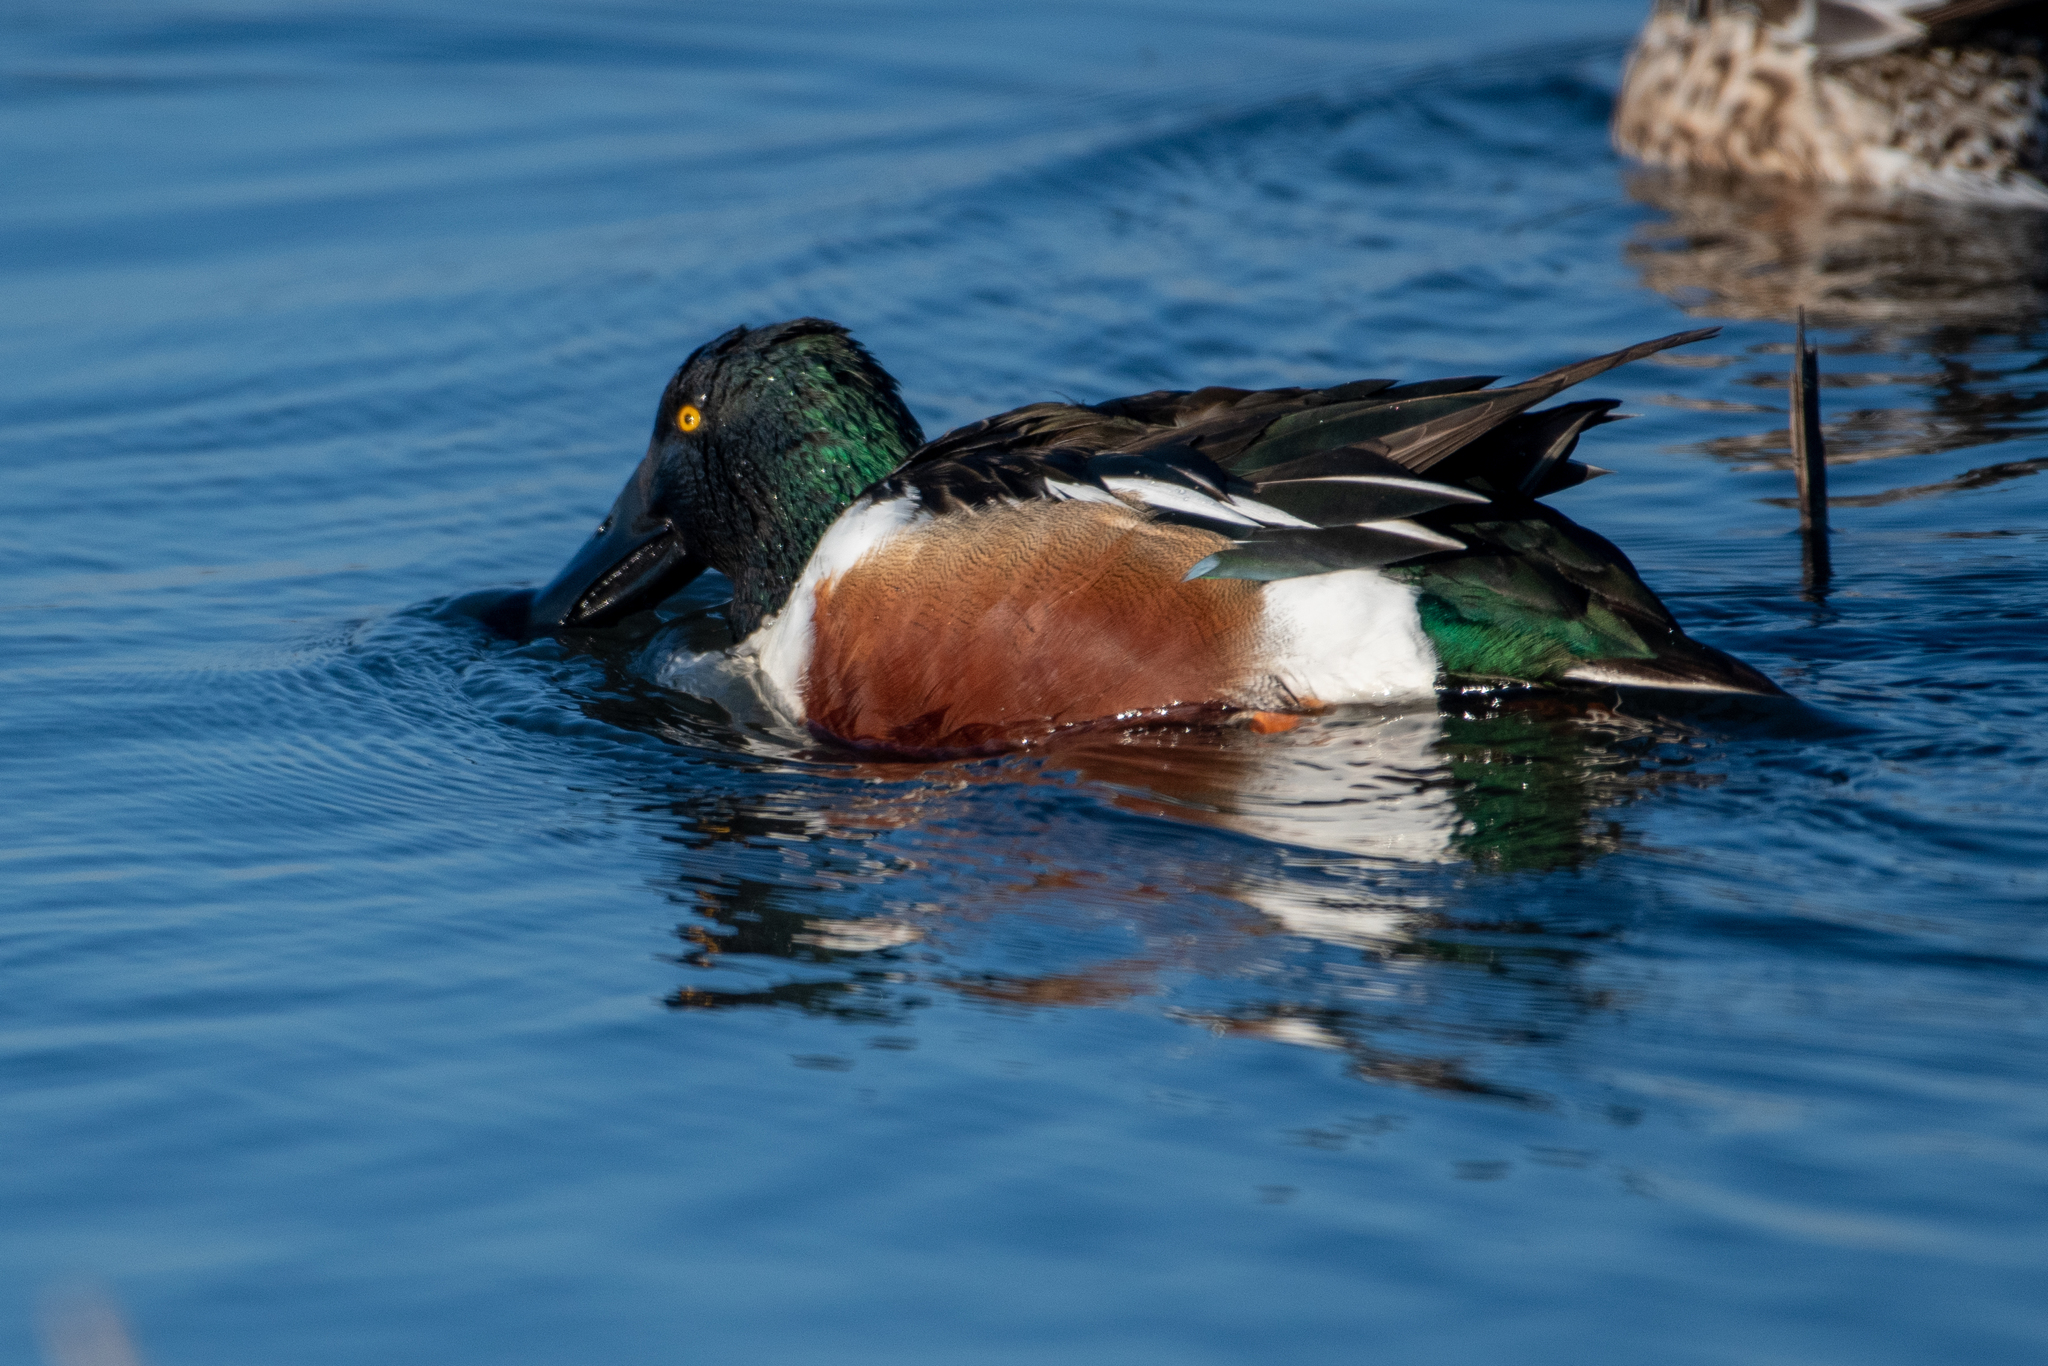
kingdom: Animalia
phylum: Chordata
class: Aves
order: Anseriformes
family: Anatidae
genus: Spatula
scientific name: Spatula clypeata
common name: Northern shoveler
